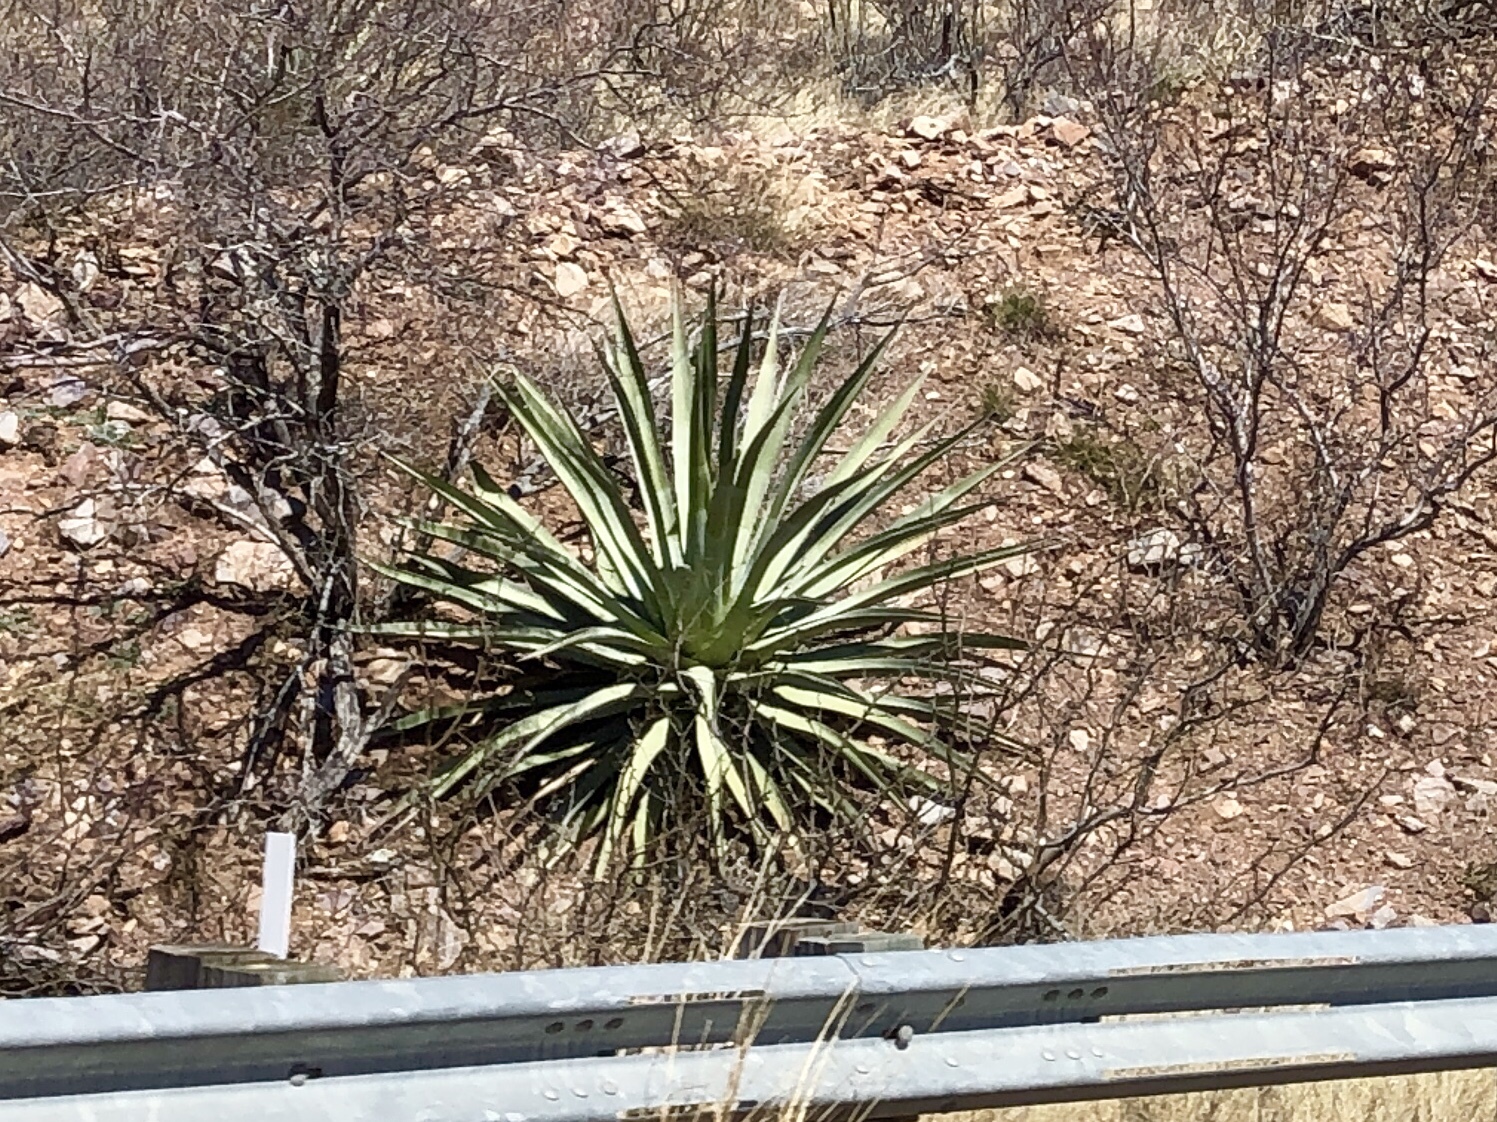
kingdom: Plantae
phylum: Tracheophyta
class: Liliopsida
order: Asparagales
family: Asparagaceae
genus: Agave
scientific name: Agave palmeri
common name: Palmer agave
